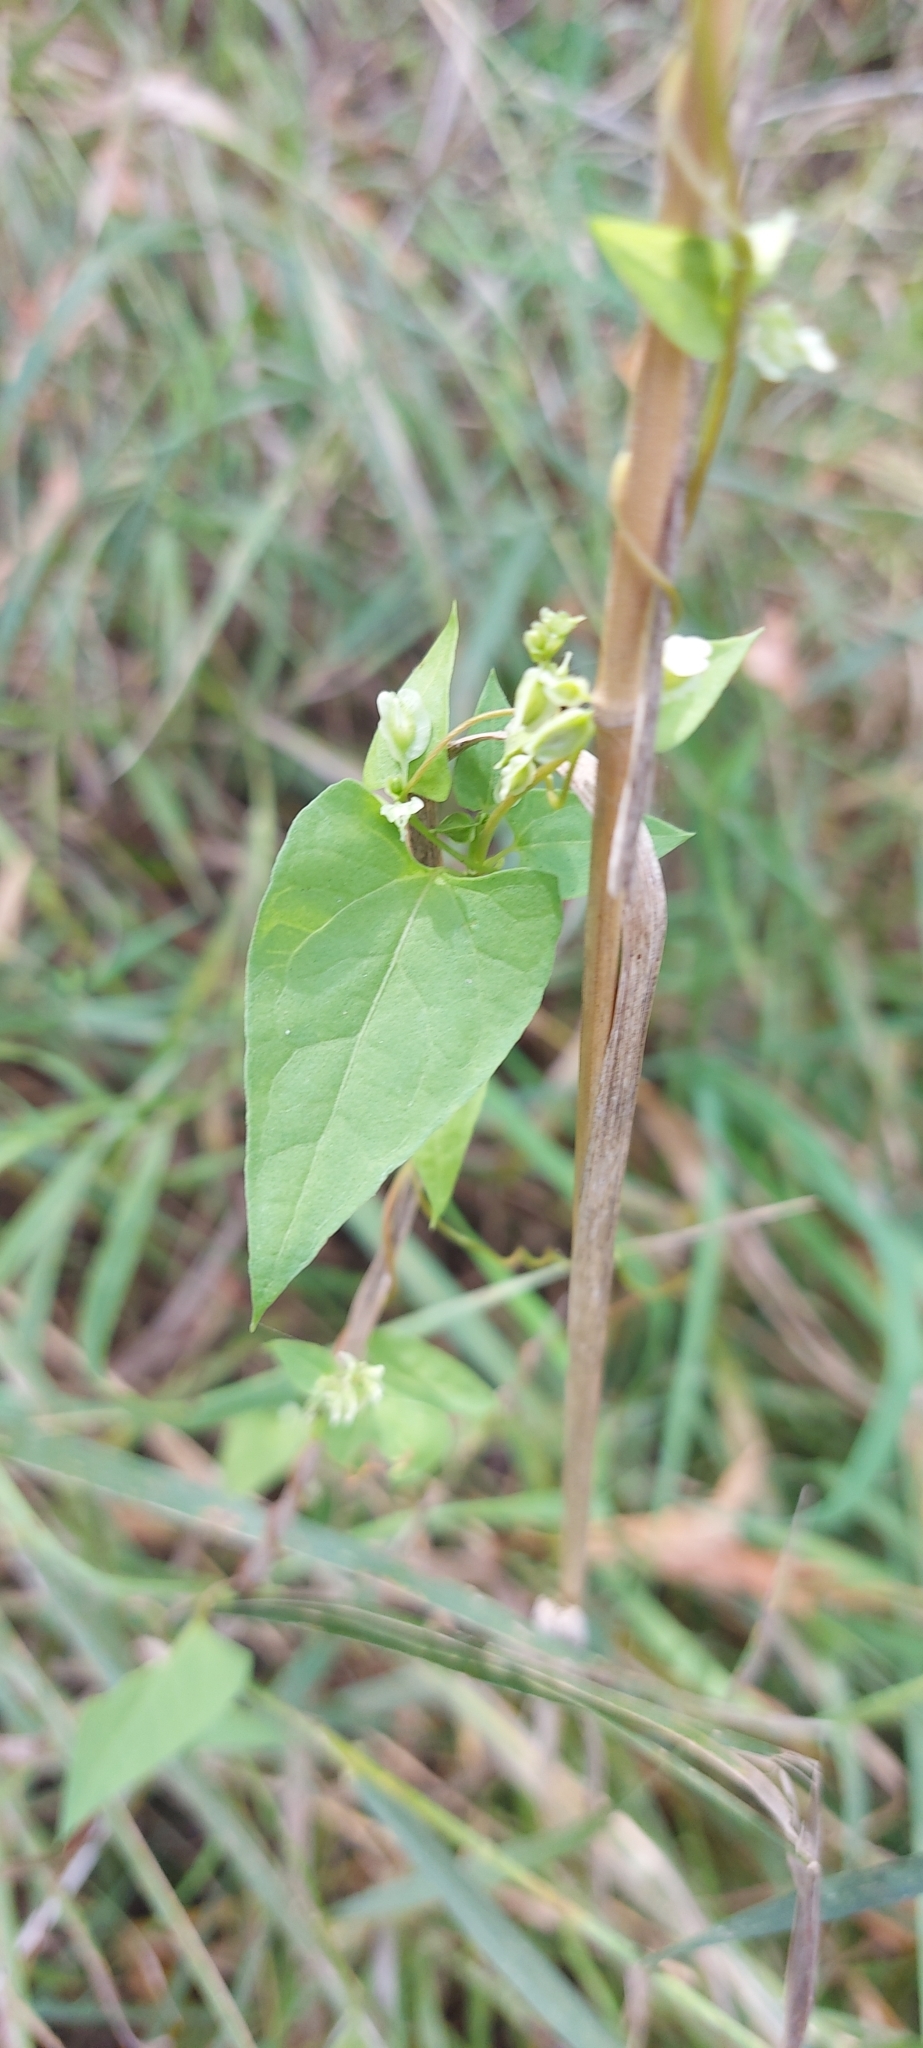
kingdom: Plantae
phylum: Tracheophyta
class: Magnoliopsida
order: Caryophyllales
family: Polygonaceae
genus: Fallopia
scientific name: Fallopia dumetorum
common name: Copse-bindweed
